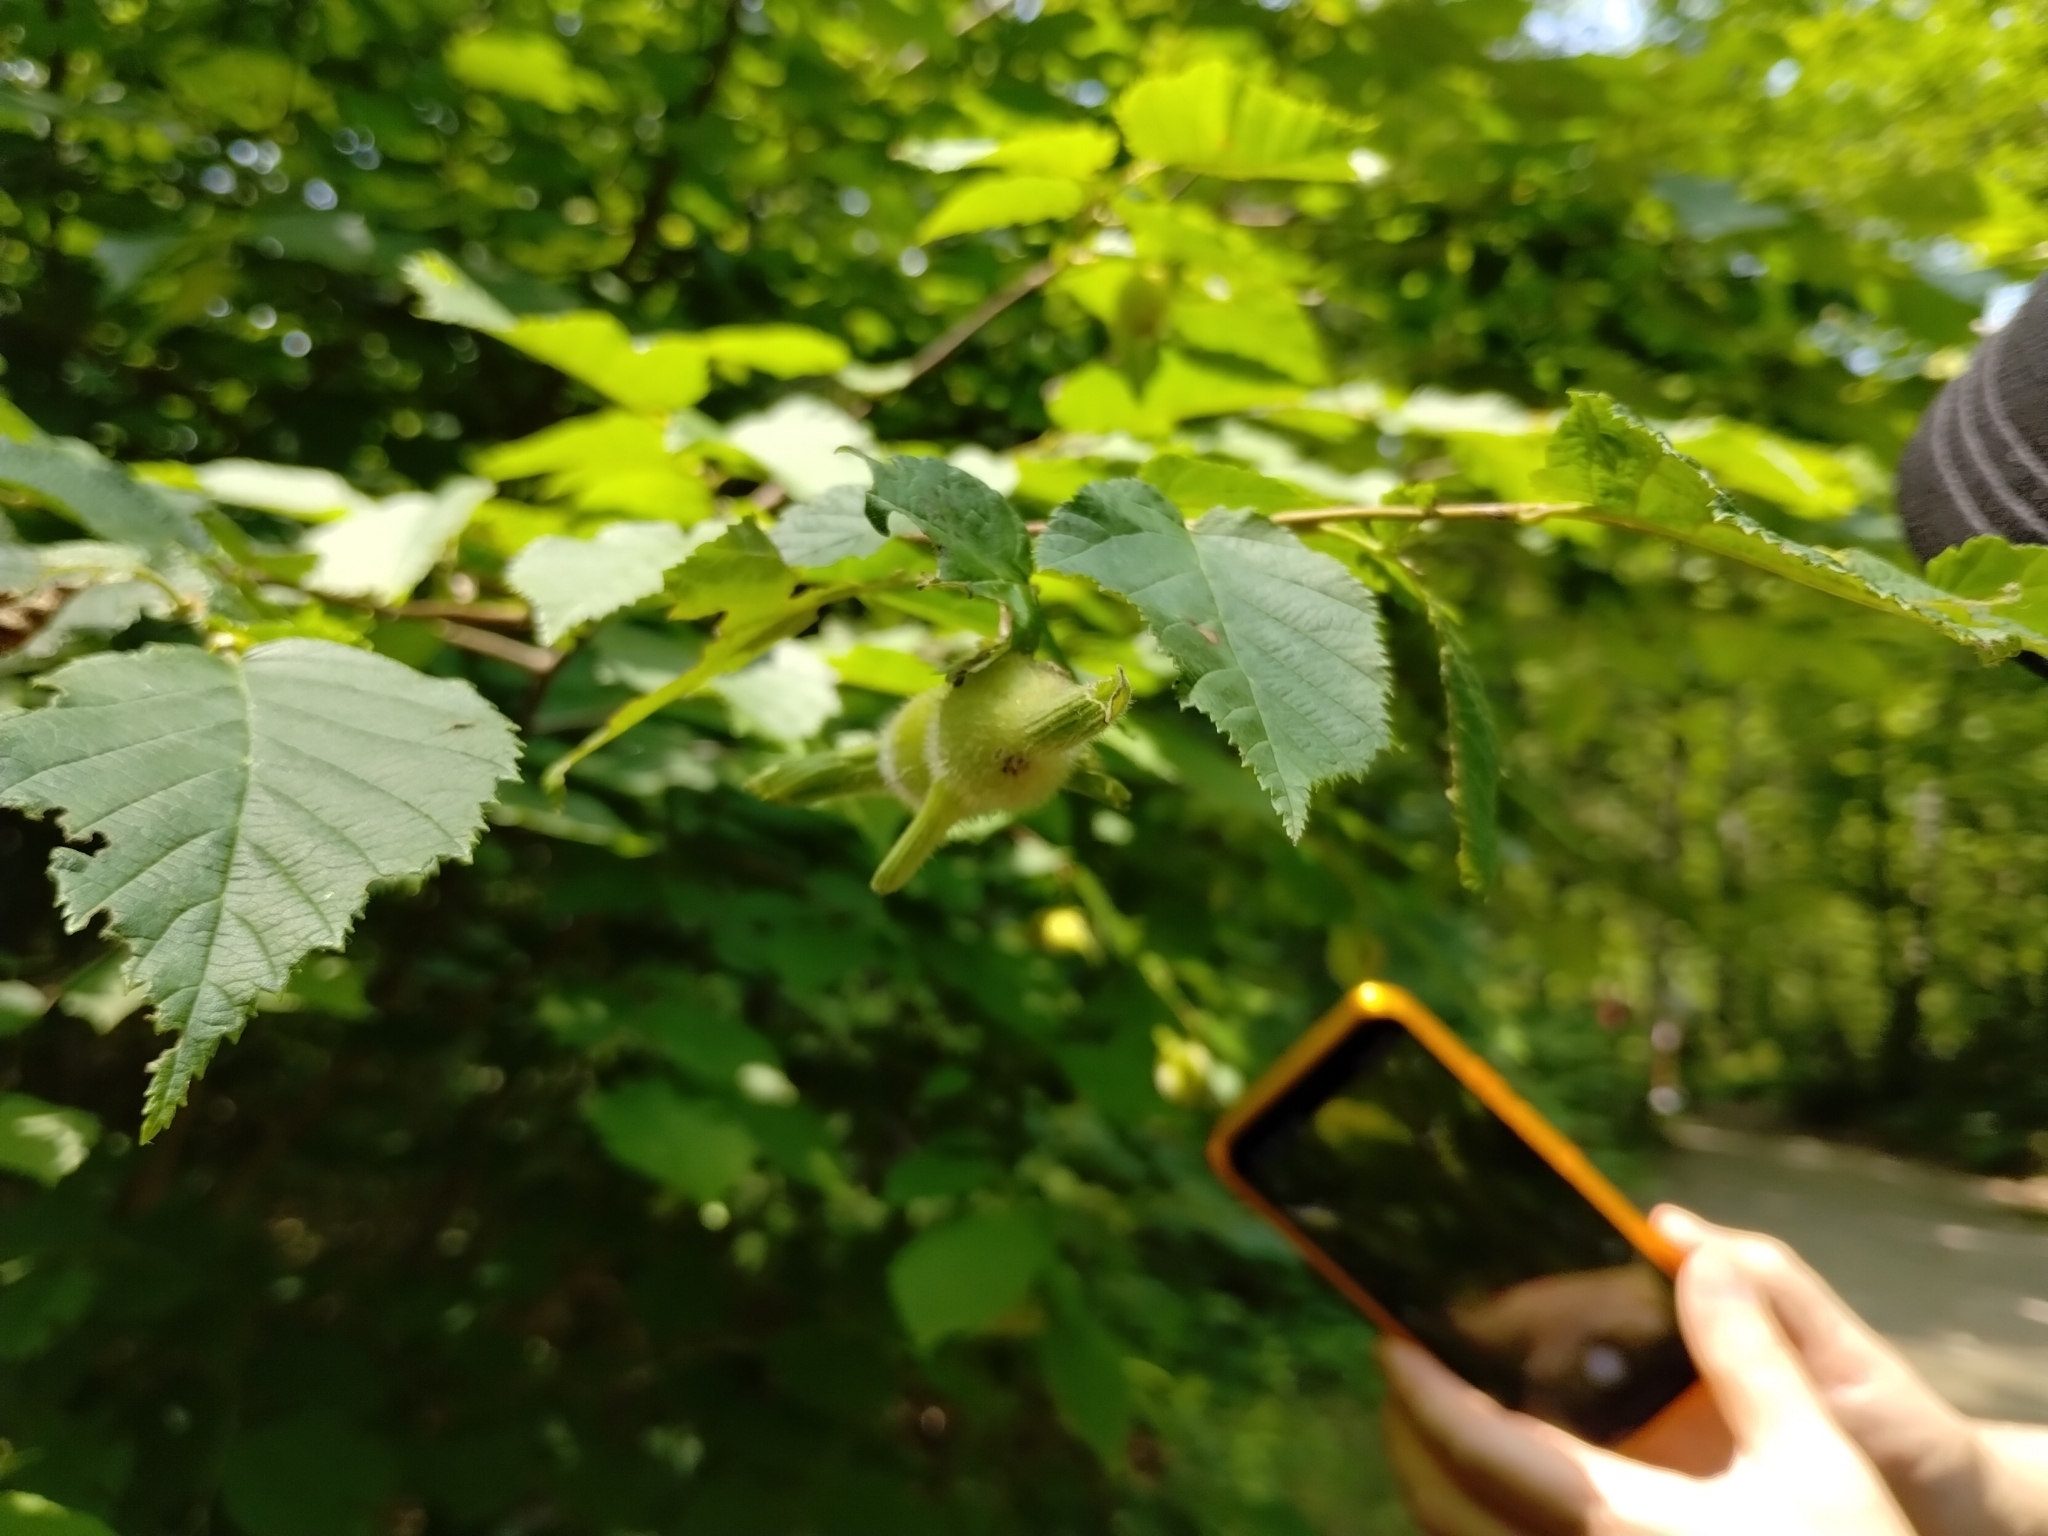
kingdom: Plantae
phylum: Tracheophyta
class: Magnoliopsida
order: Fagales
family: Betulaceae
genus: Corylus
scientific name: Corylus cornuta
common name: Beaked hazel
